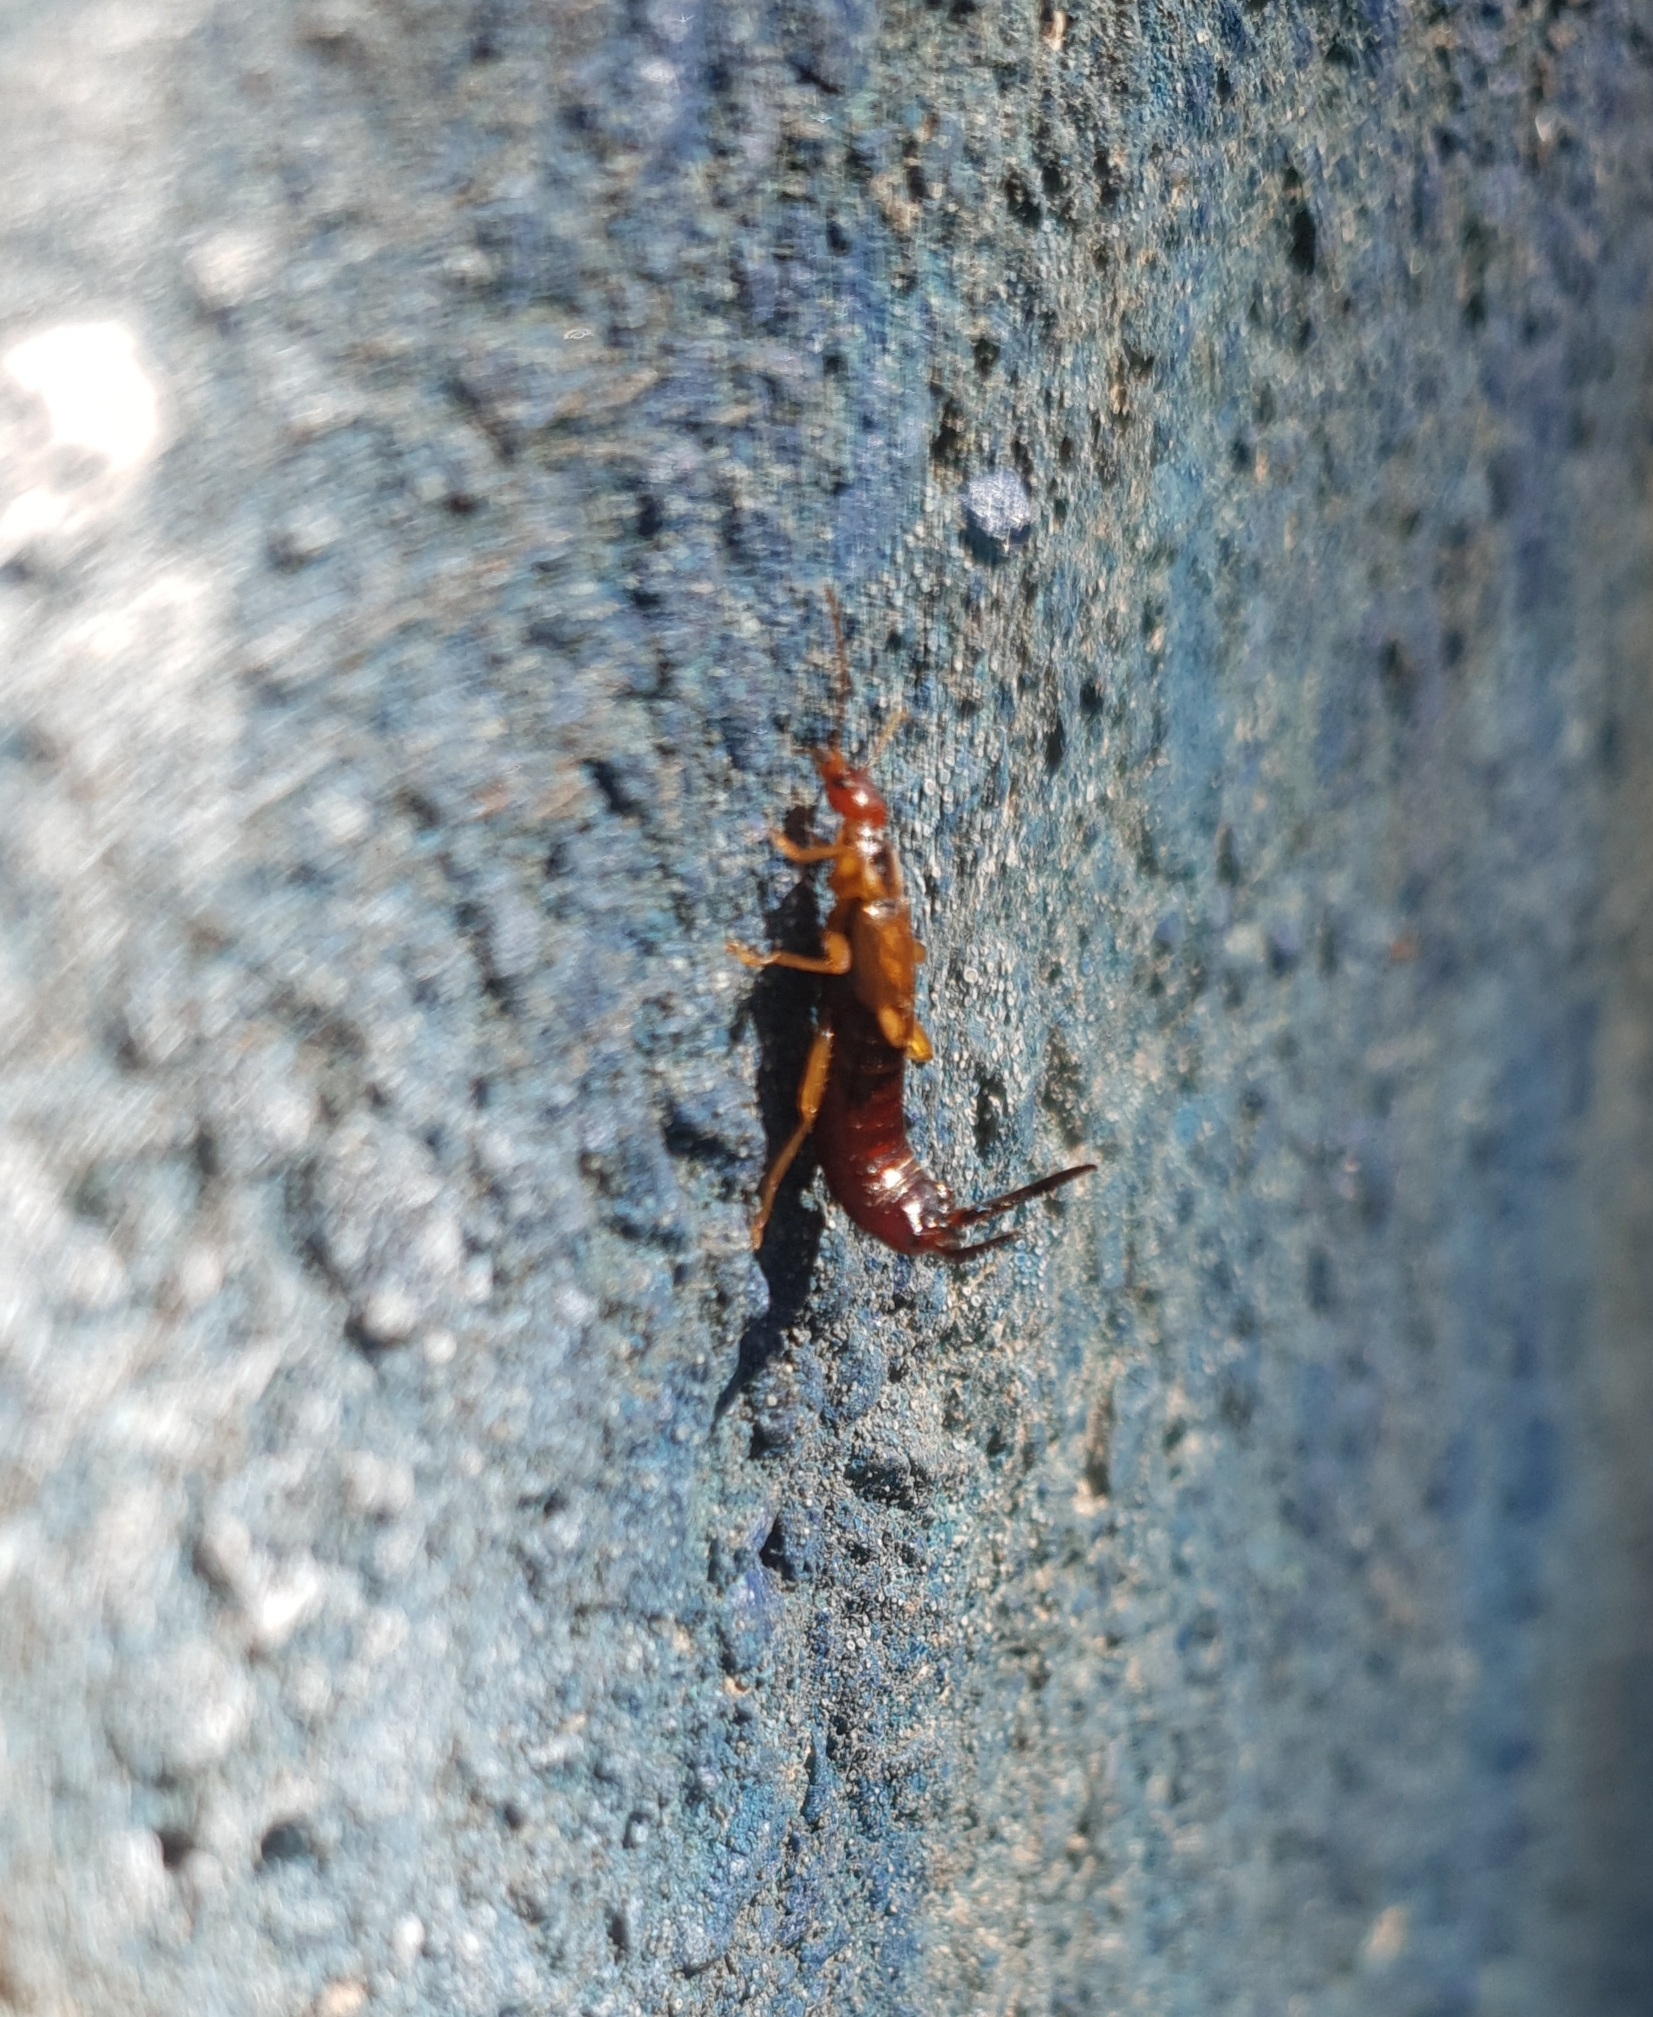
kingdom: Animalia
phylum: Arthropoda
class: Insecta
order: Dermaptera
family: Forficulidae
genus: Forficula
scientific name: Forficula
